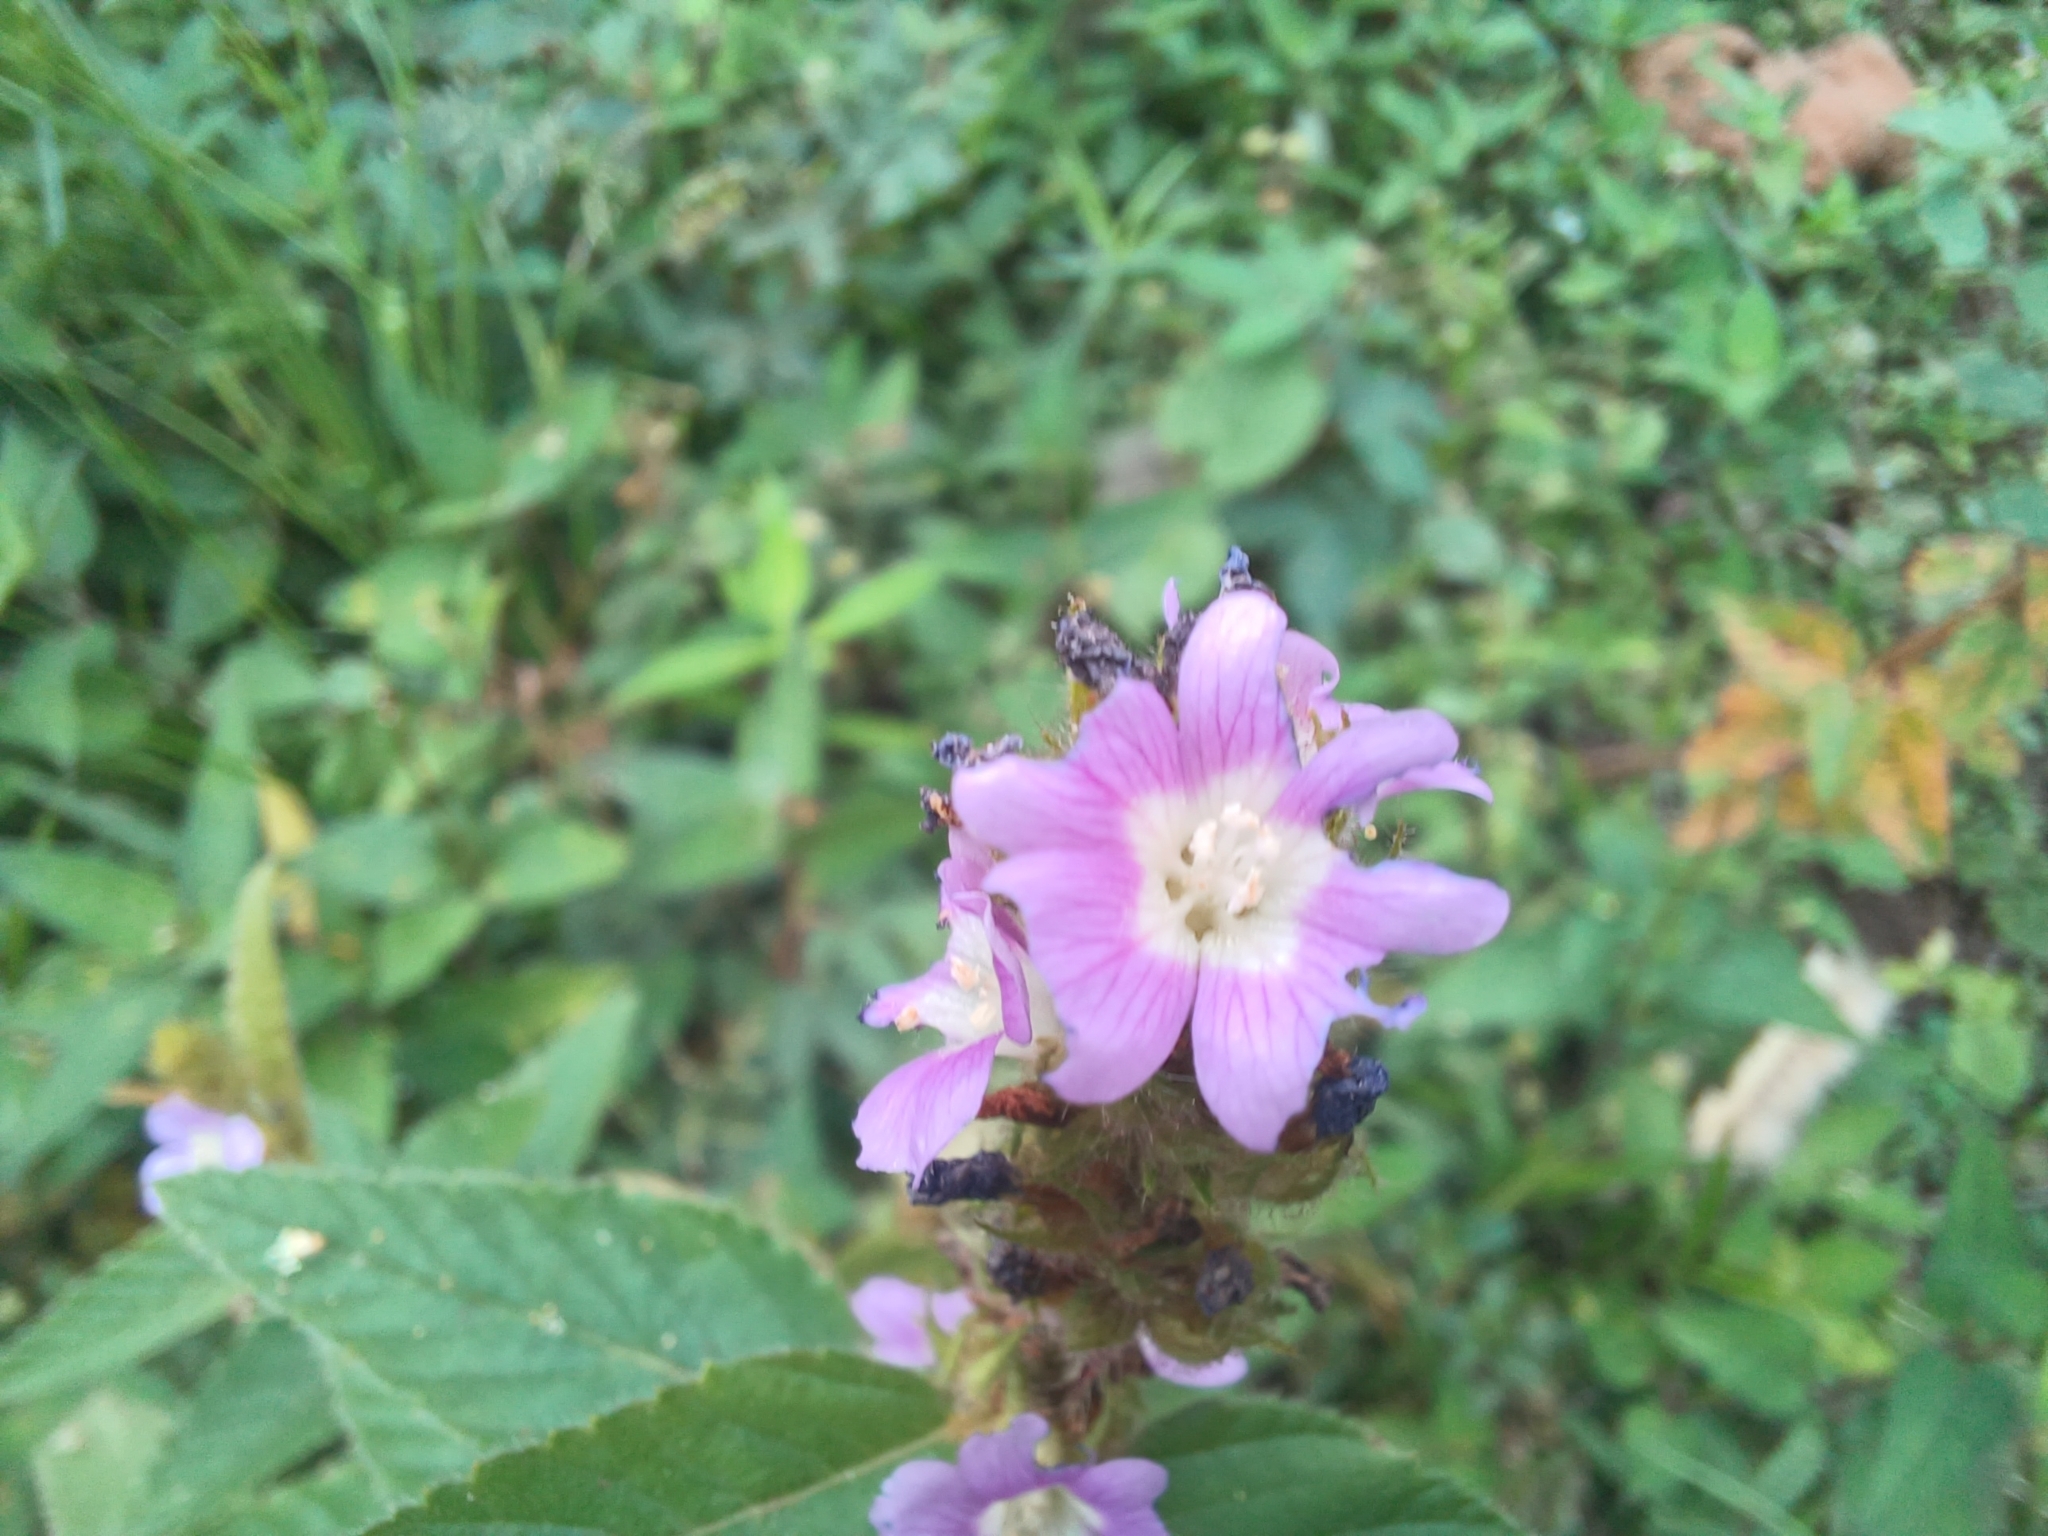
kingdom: Plantae
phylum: Tracheophyta
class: Magnoliopsida
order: Malvales
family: Malvaceae
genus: Melochia
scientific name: Melochia spicata
